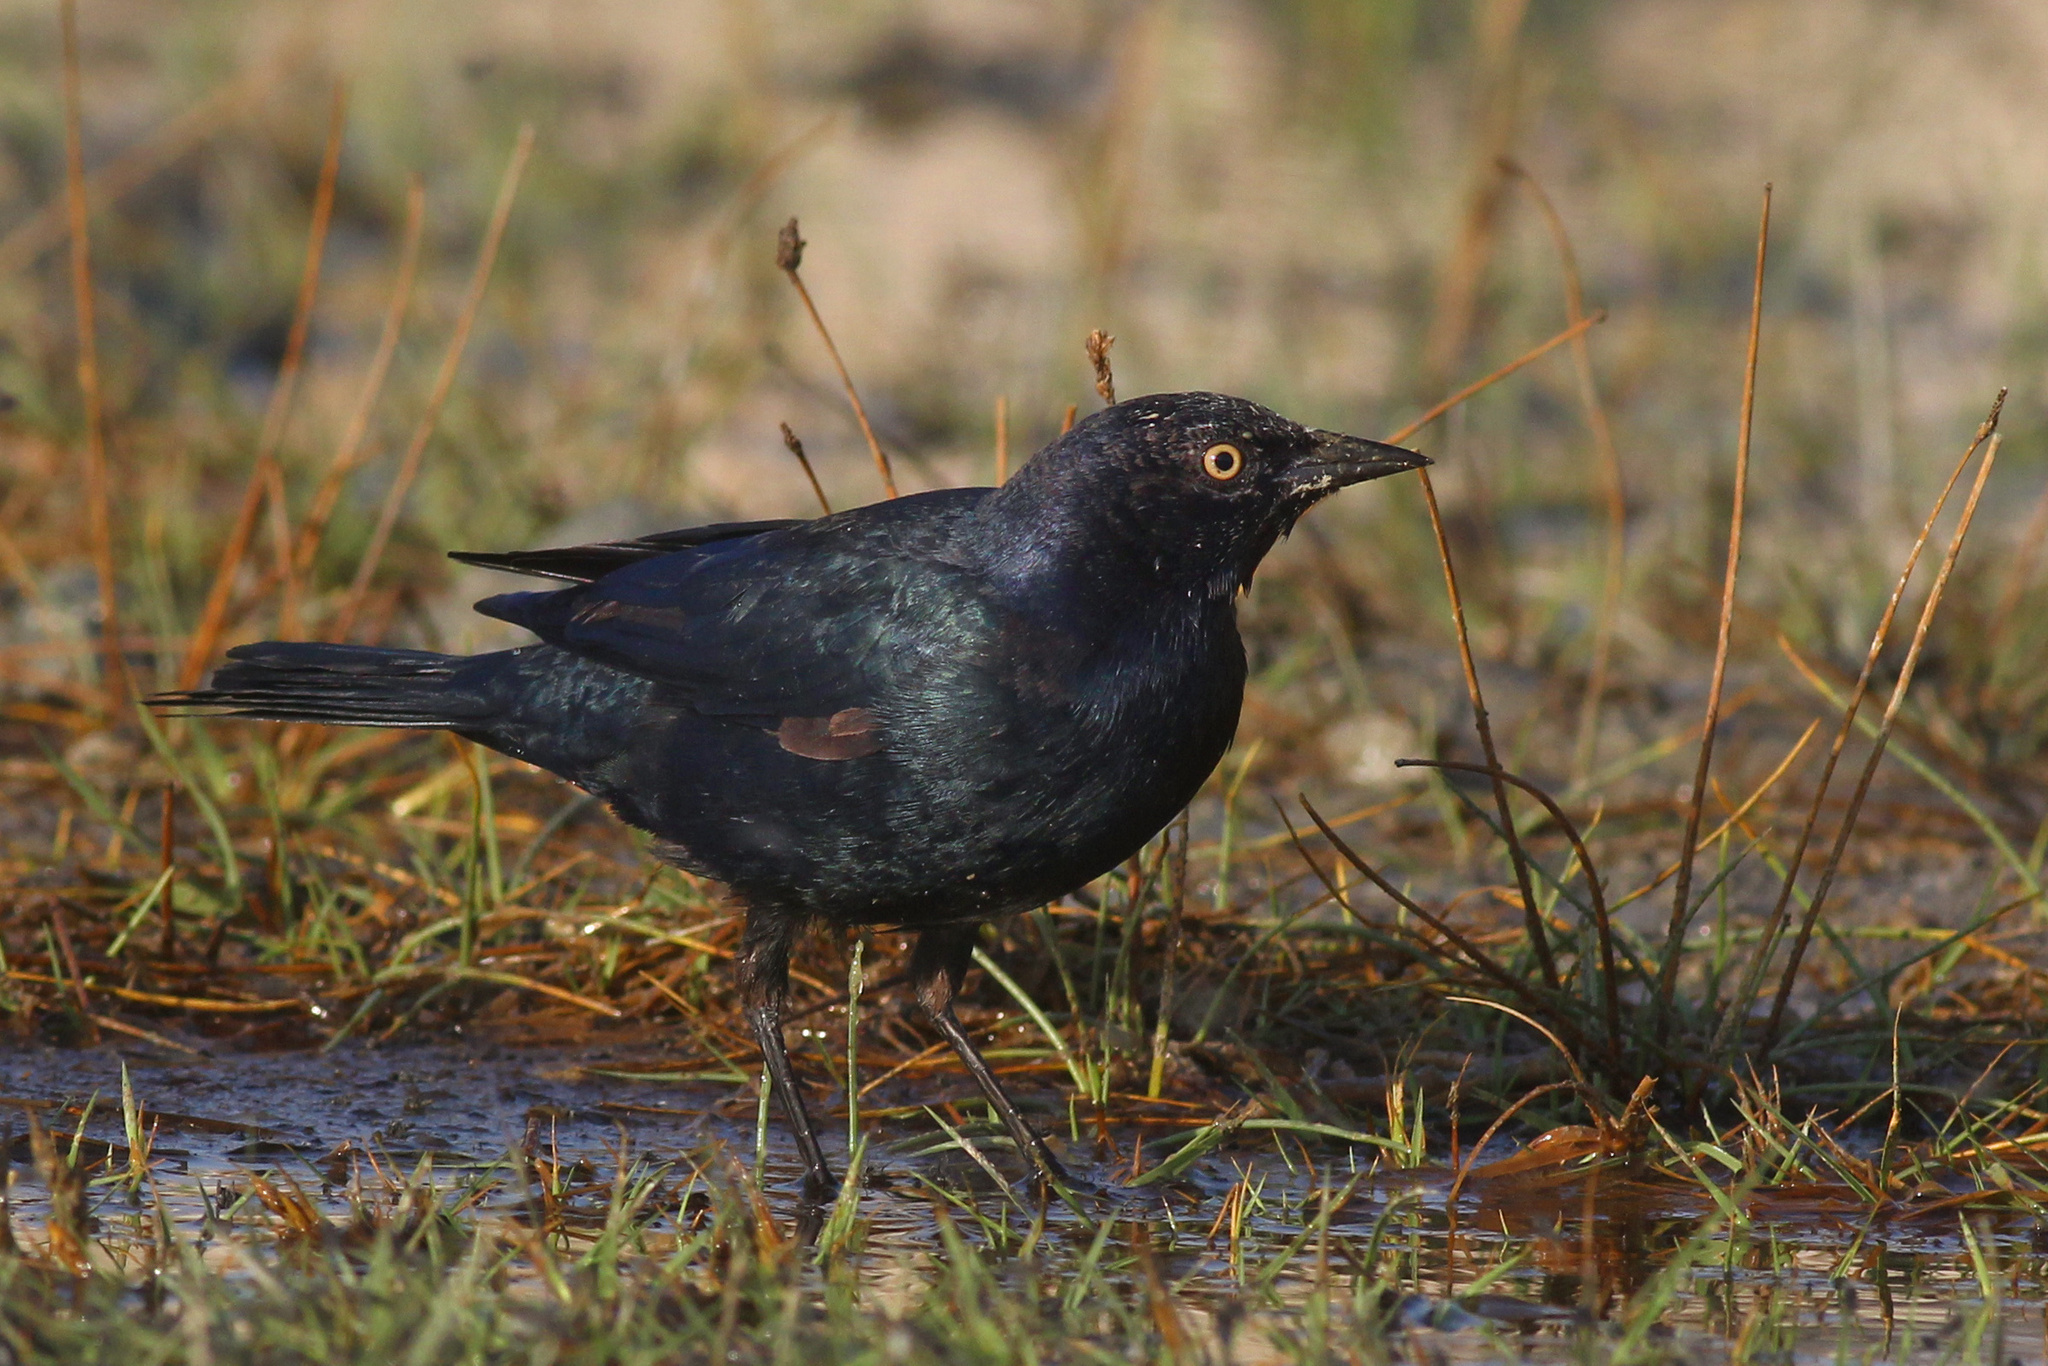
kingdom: Animalia
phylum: Chordata
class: Aves
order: Passeriformes
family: Icteridae
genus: Euphagus
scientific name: Euphagus cyanocephalus
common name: Brewer's blackbird
